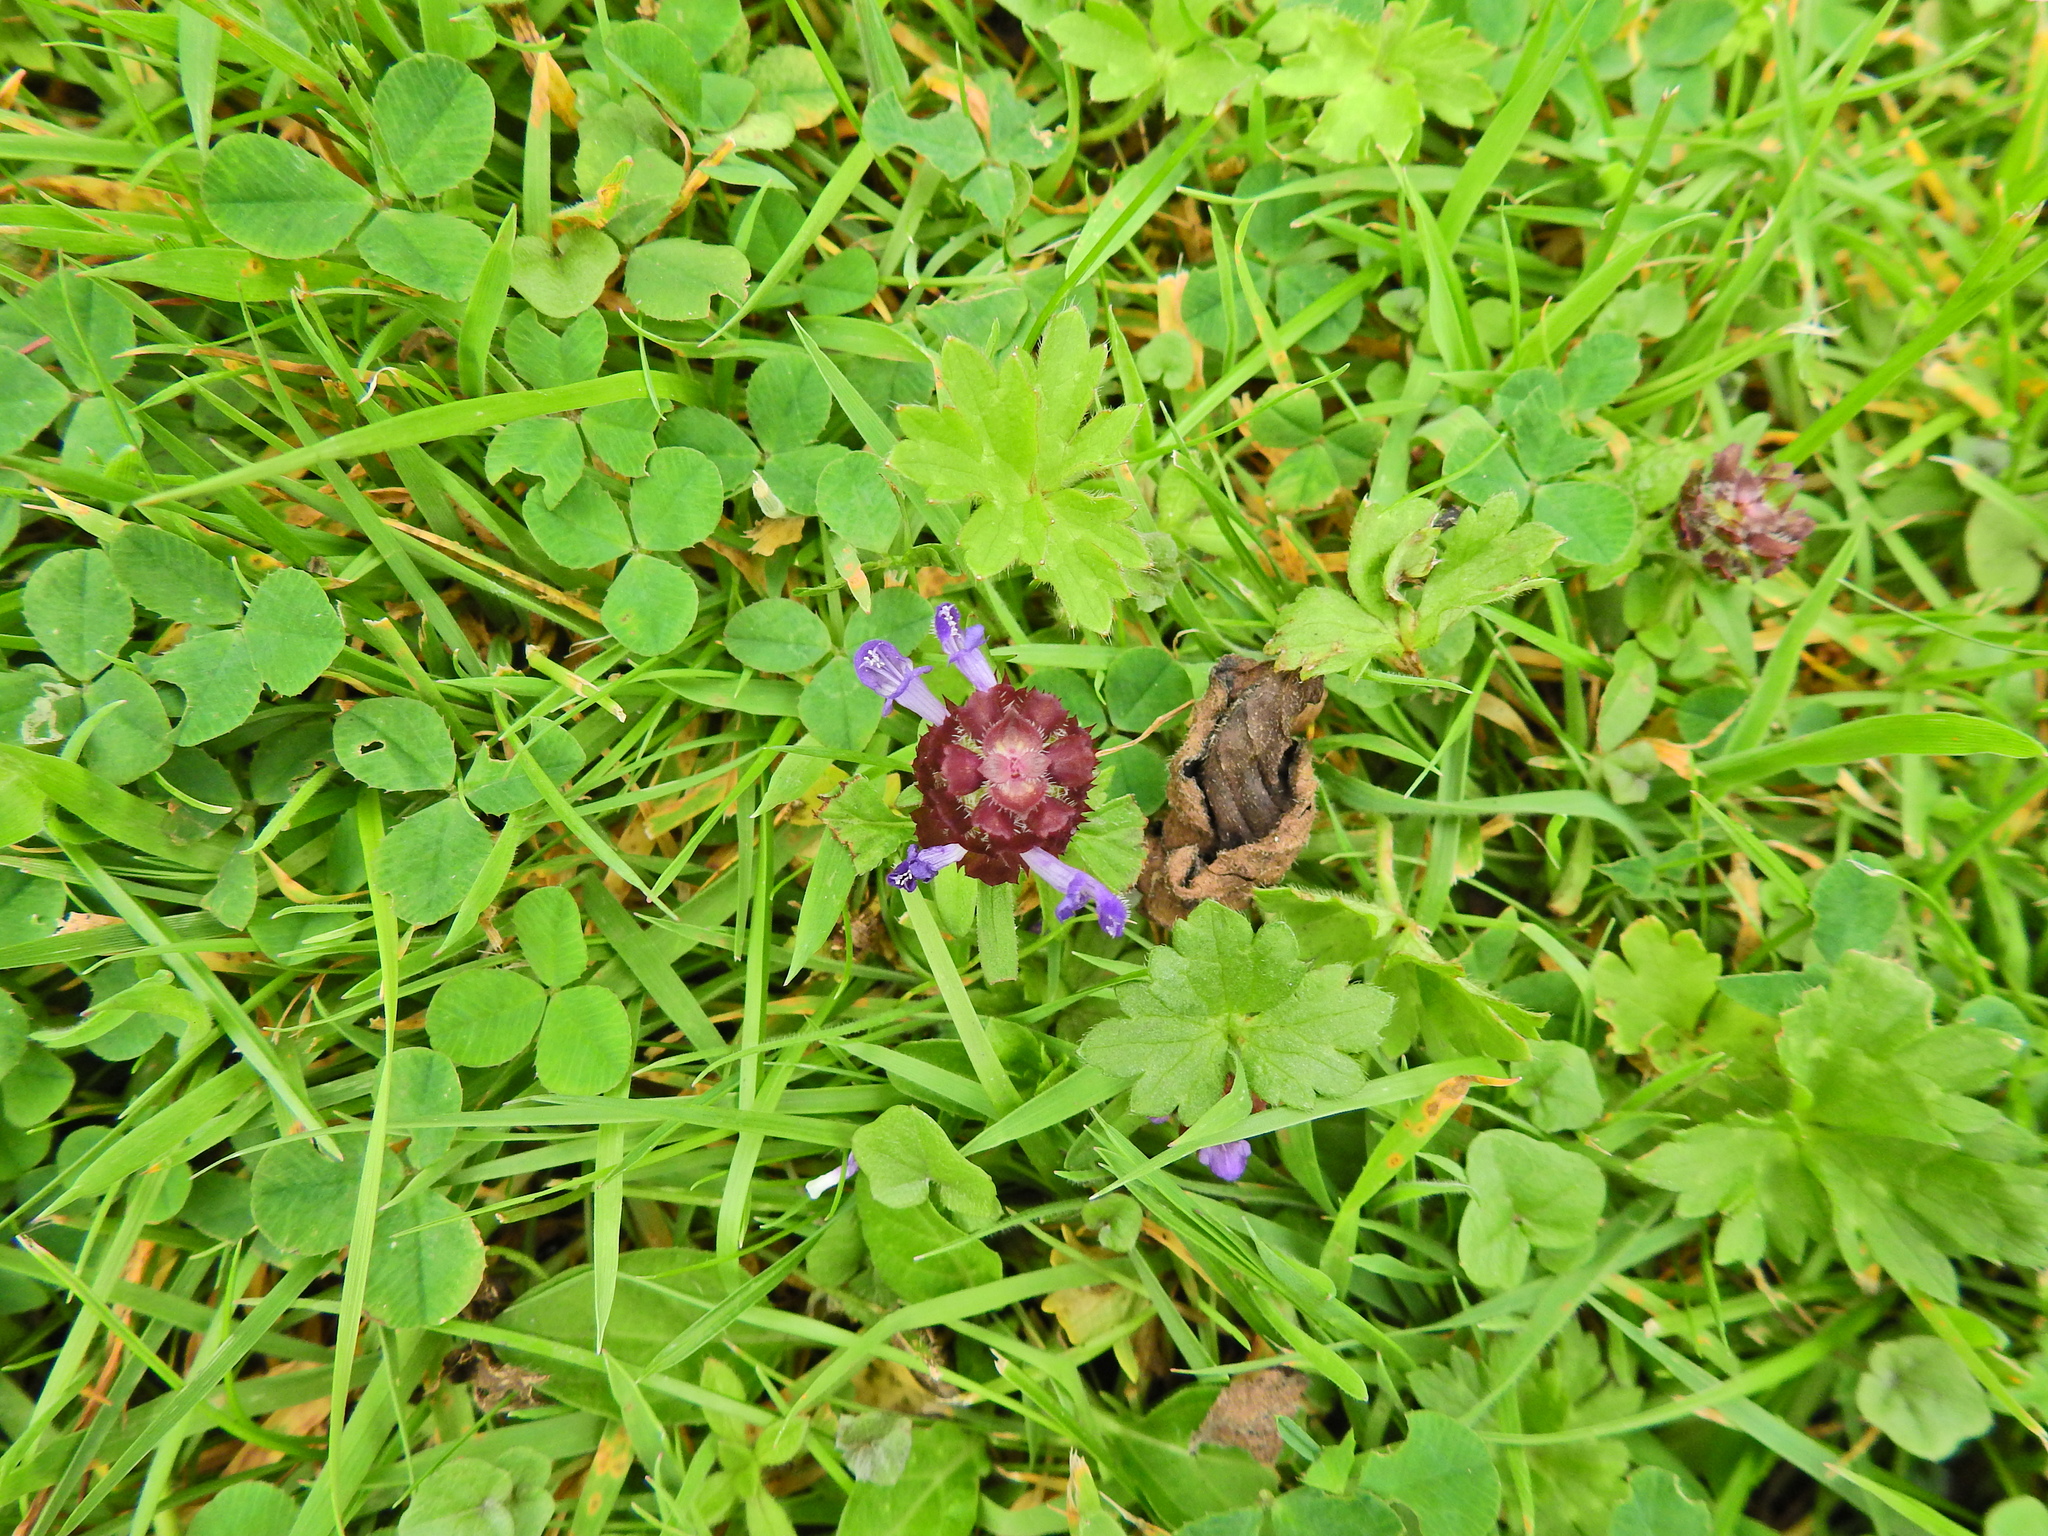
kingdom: Plantae
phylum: Tracheophyta
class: Magnoliopsida
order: Lamiales
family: Lamiaceae
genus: Prunella
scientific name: Prunella vulgaris
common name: Heal-all
